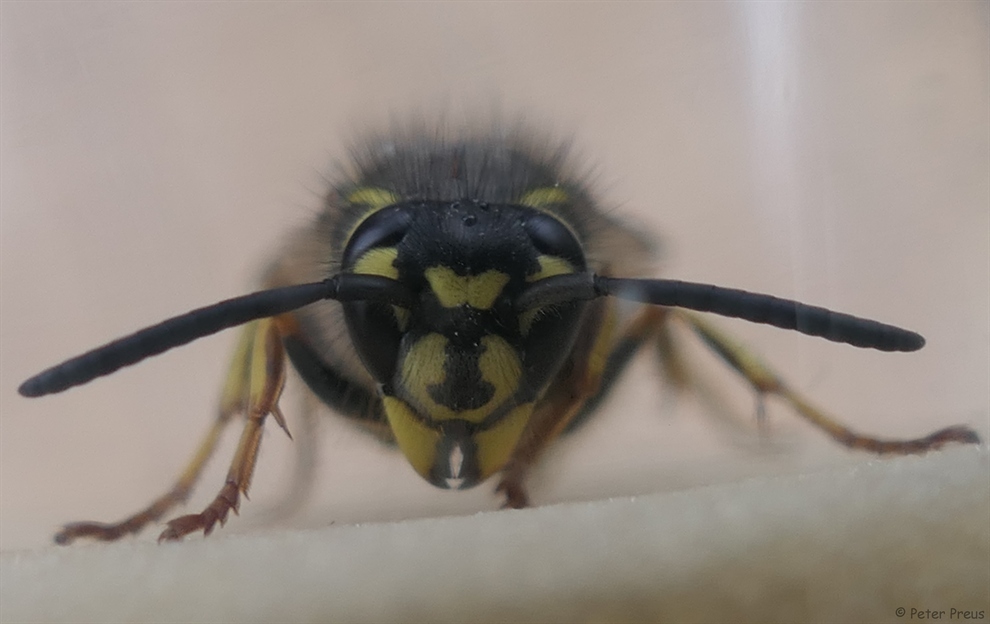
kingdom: Animalia
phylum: Arthropoda
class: Insecta
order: Hymenoptera
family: Vespidae
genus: Vespula
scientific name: Vespula vulgaris
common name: Common wasp
